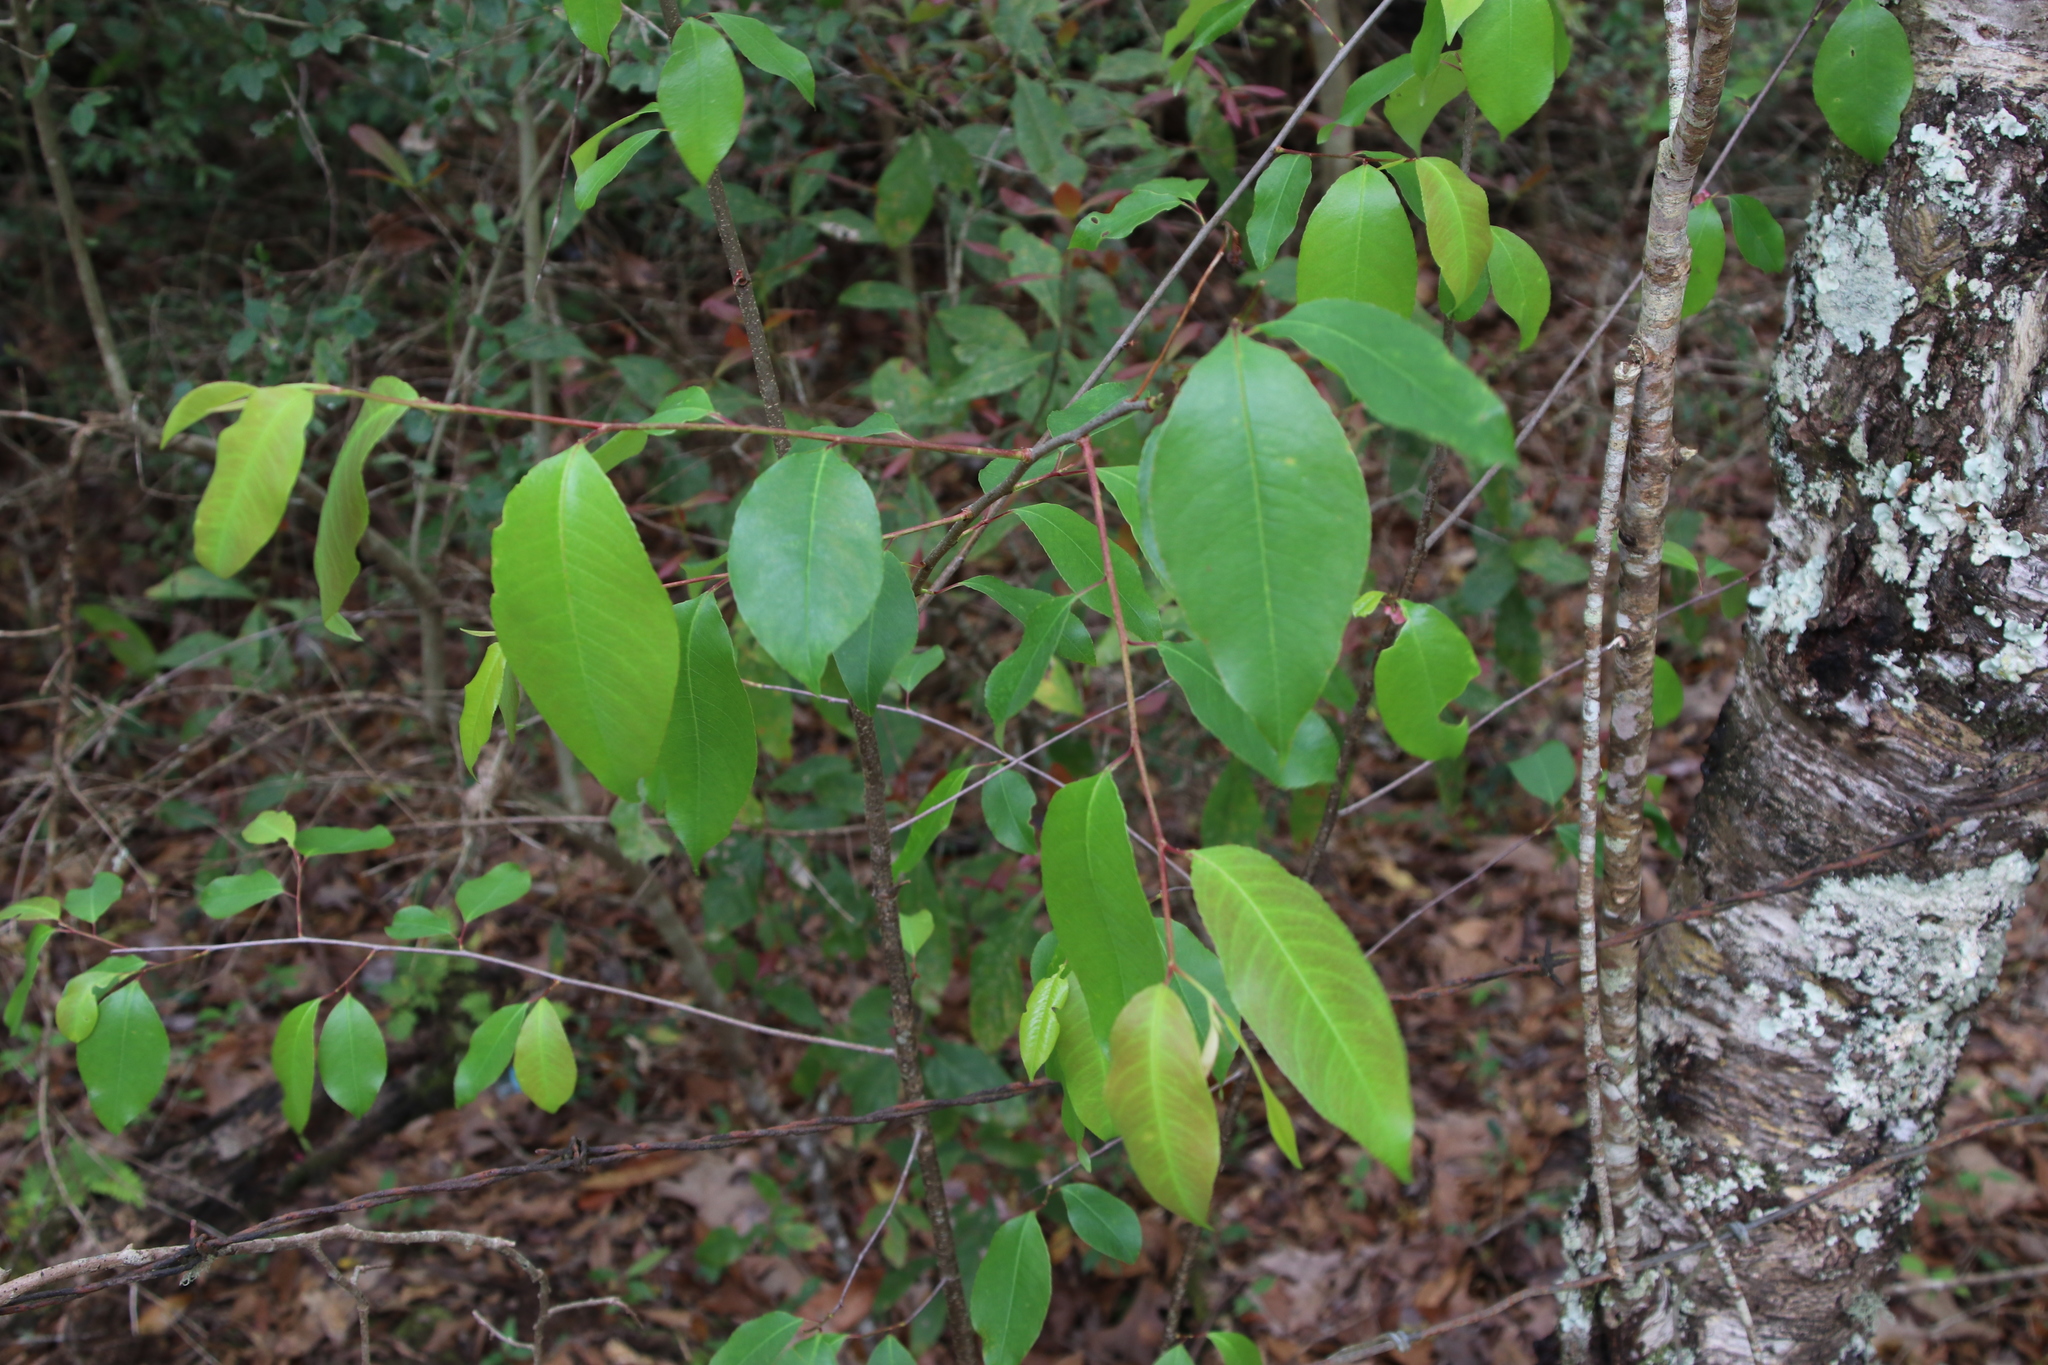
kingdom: Plantae
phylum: Tracheophyta
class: Magnoliopsida
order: Rosales
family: Rosaceae
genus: Prunus
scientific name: Prunus serotina
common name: Black cherry
